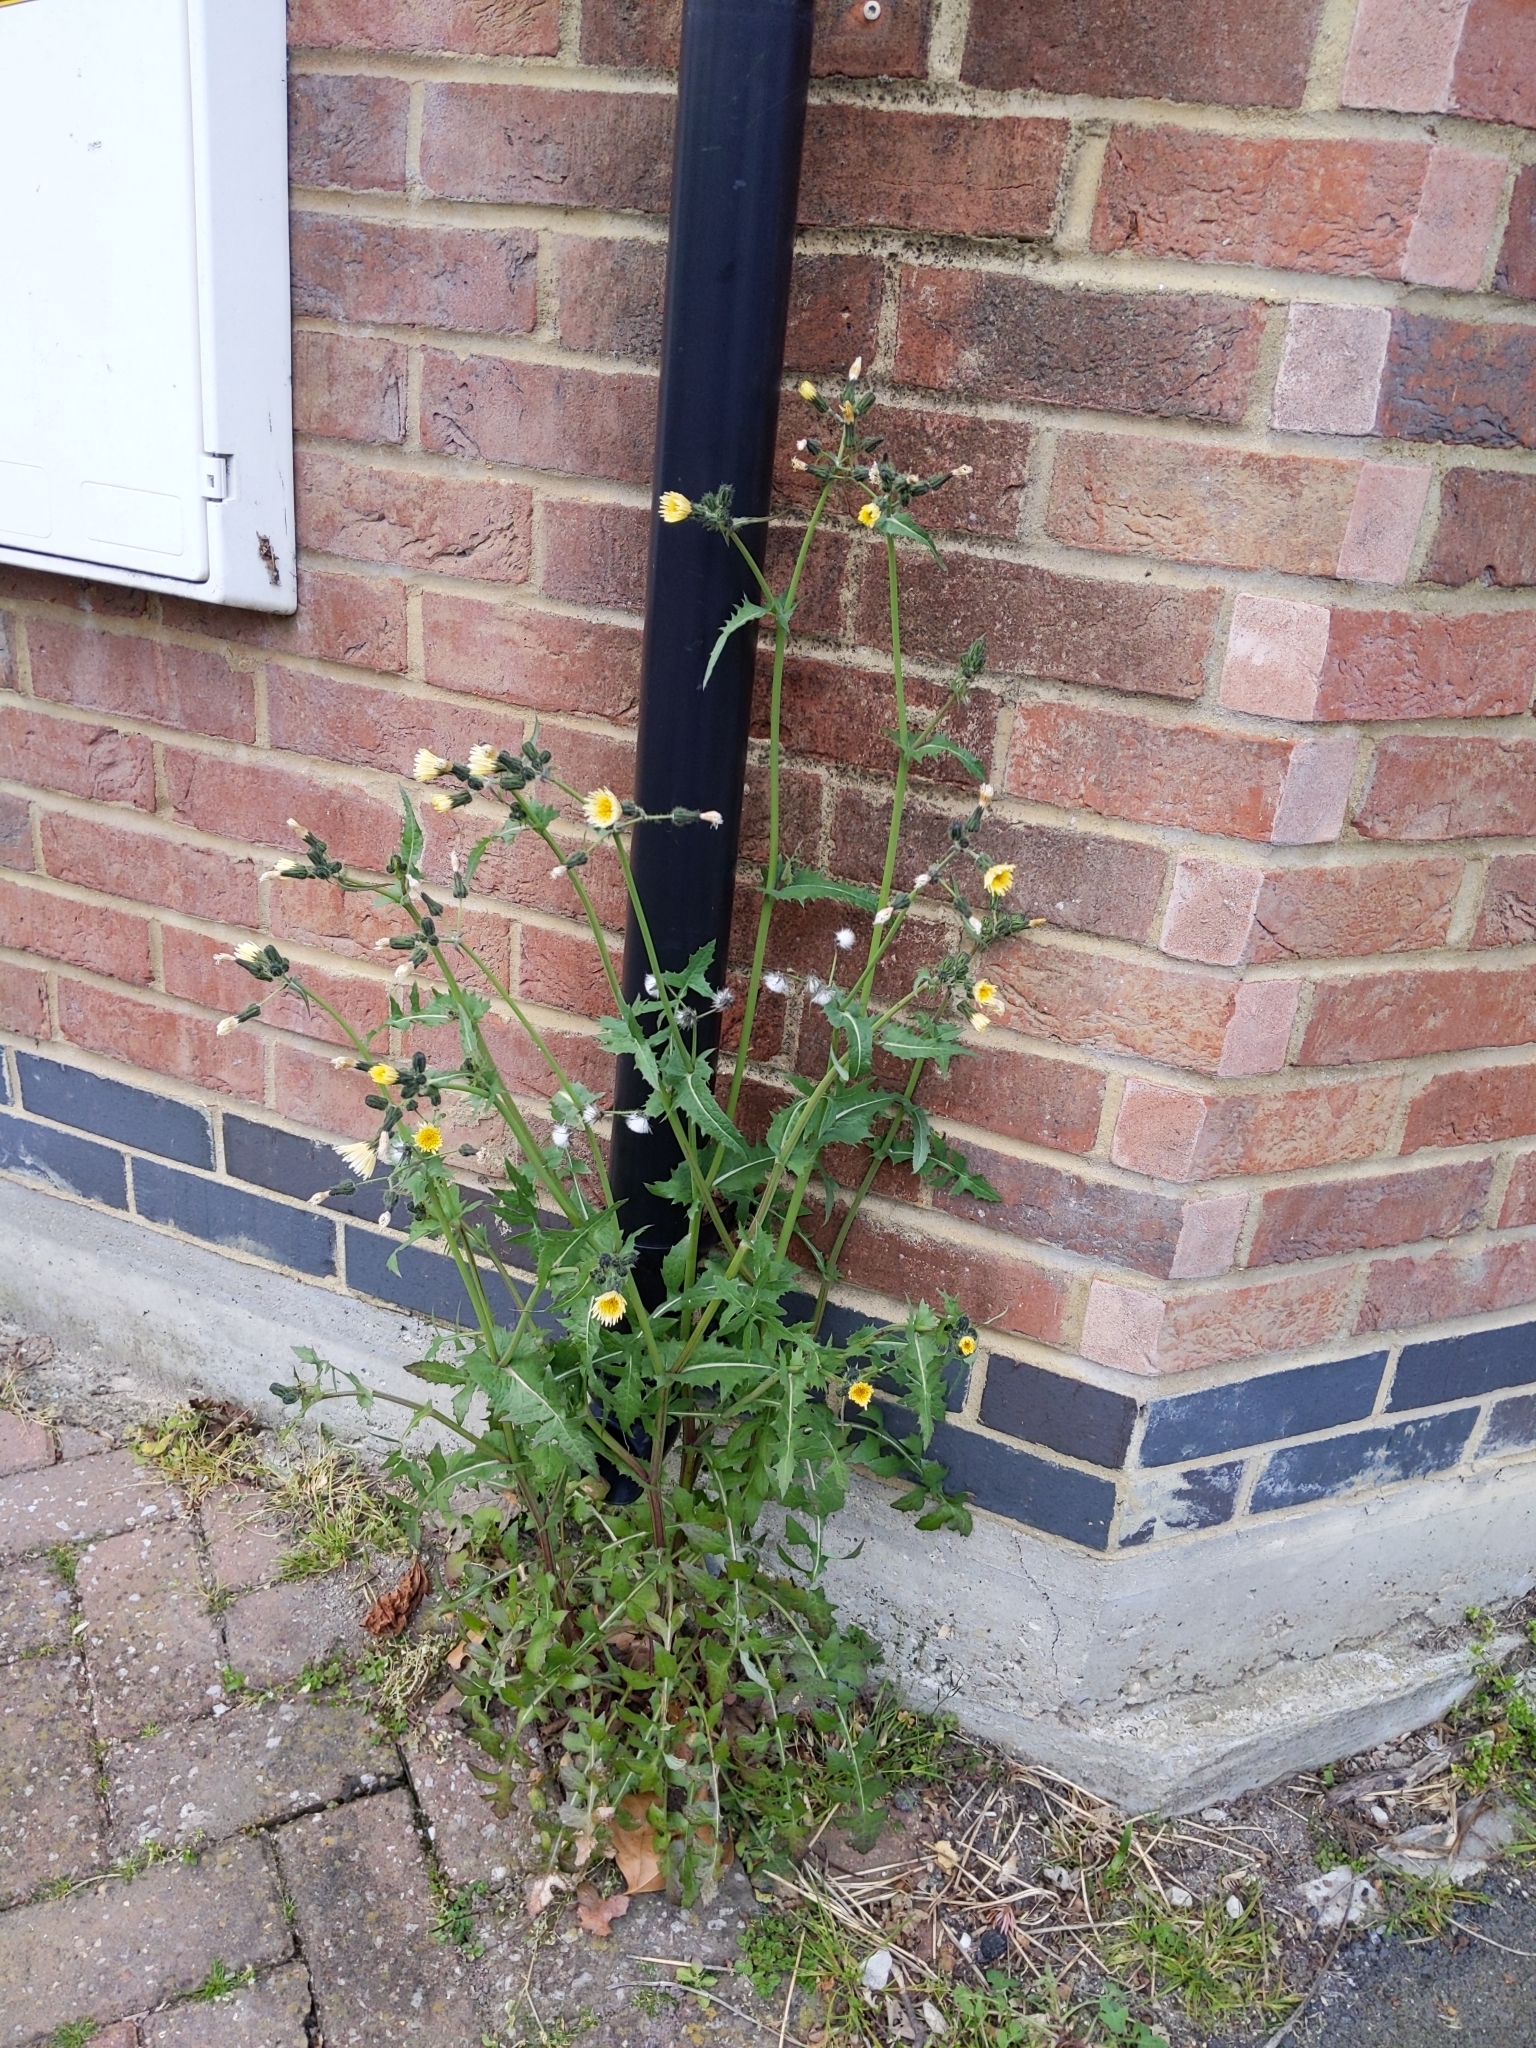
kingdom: Plantae
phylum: Tracheophyta
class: Magnoliopsida
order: Asterales
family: Asteraceae
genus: Sonchus
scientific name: Sonchus oleraceus
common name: Common sowthistle
